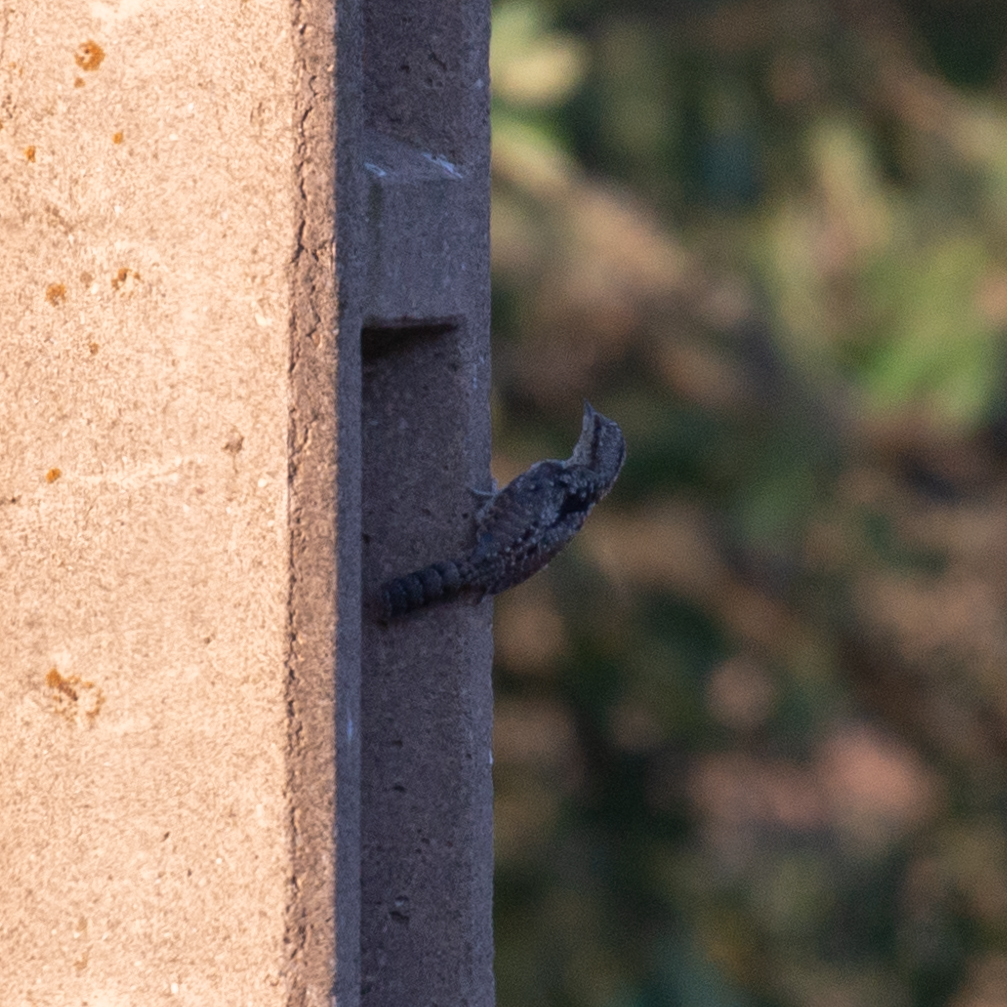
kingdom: Animalia
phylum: Chordata
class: Aves
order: Piciformes
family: Picidae
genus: Jynx
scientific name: Jynx torquilla
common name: Eurasian wryneck
